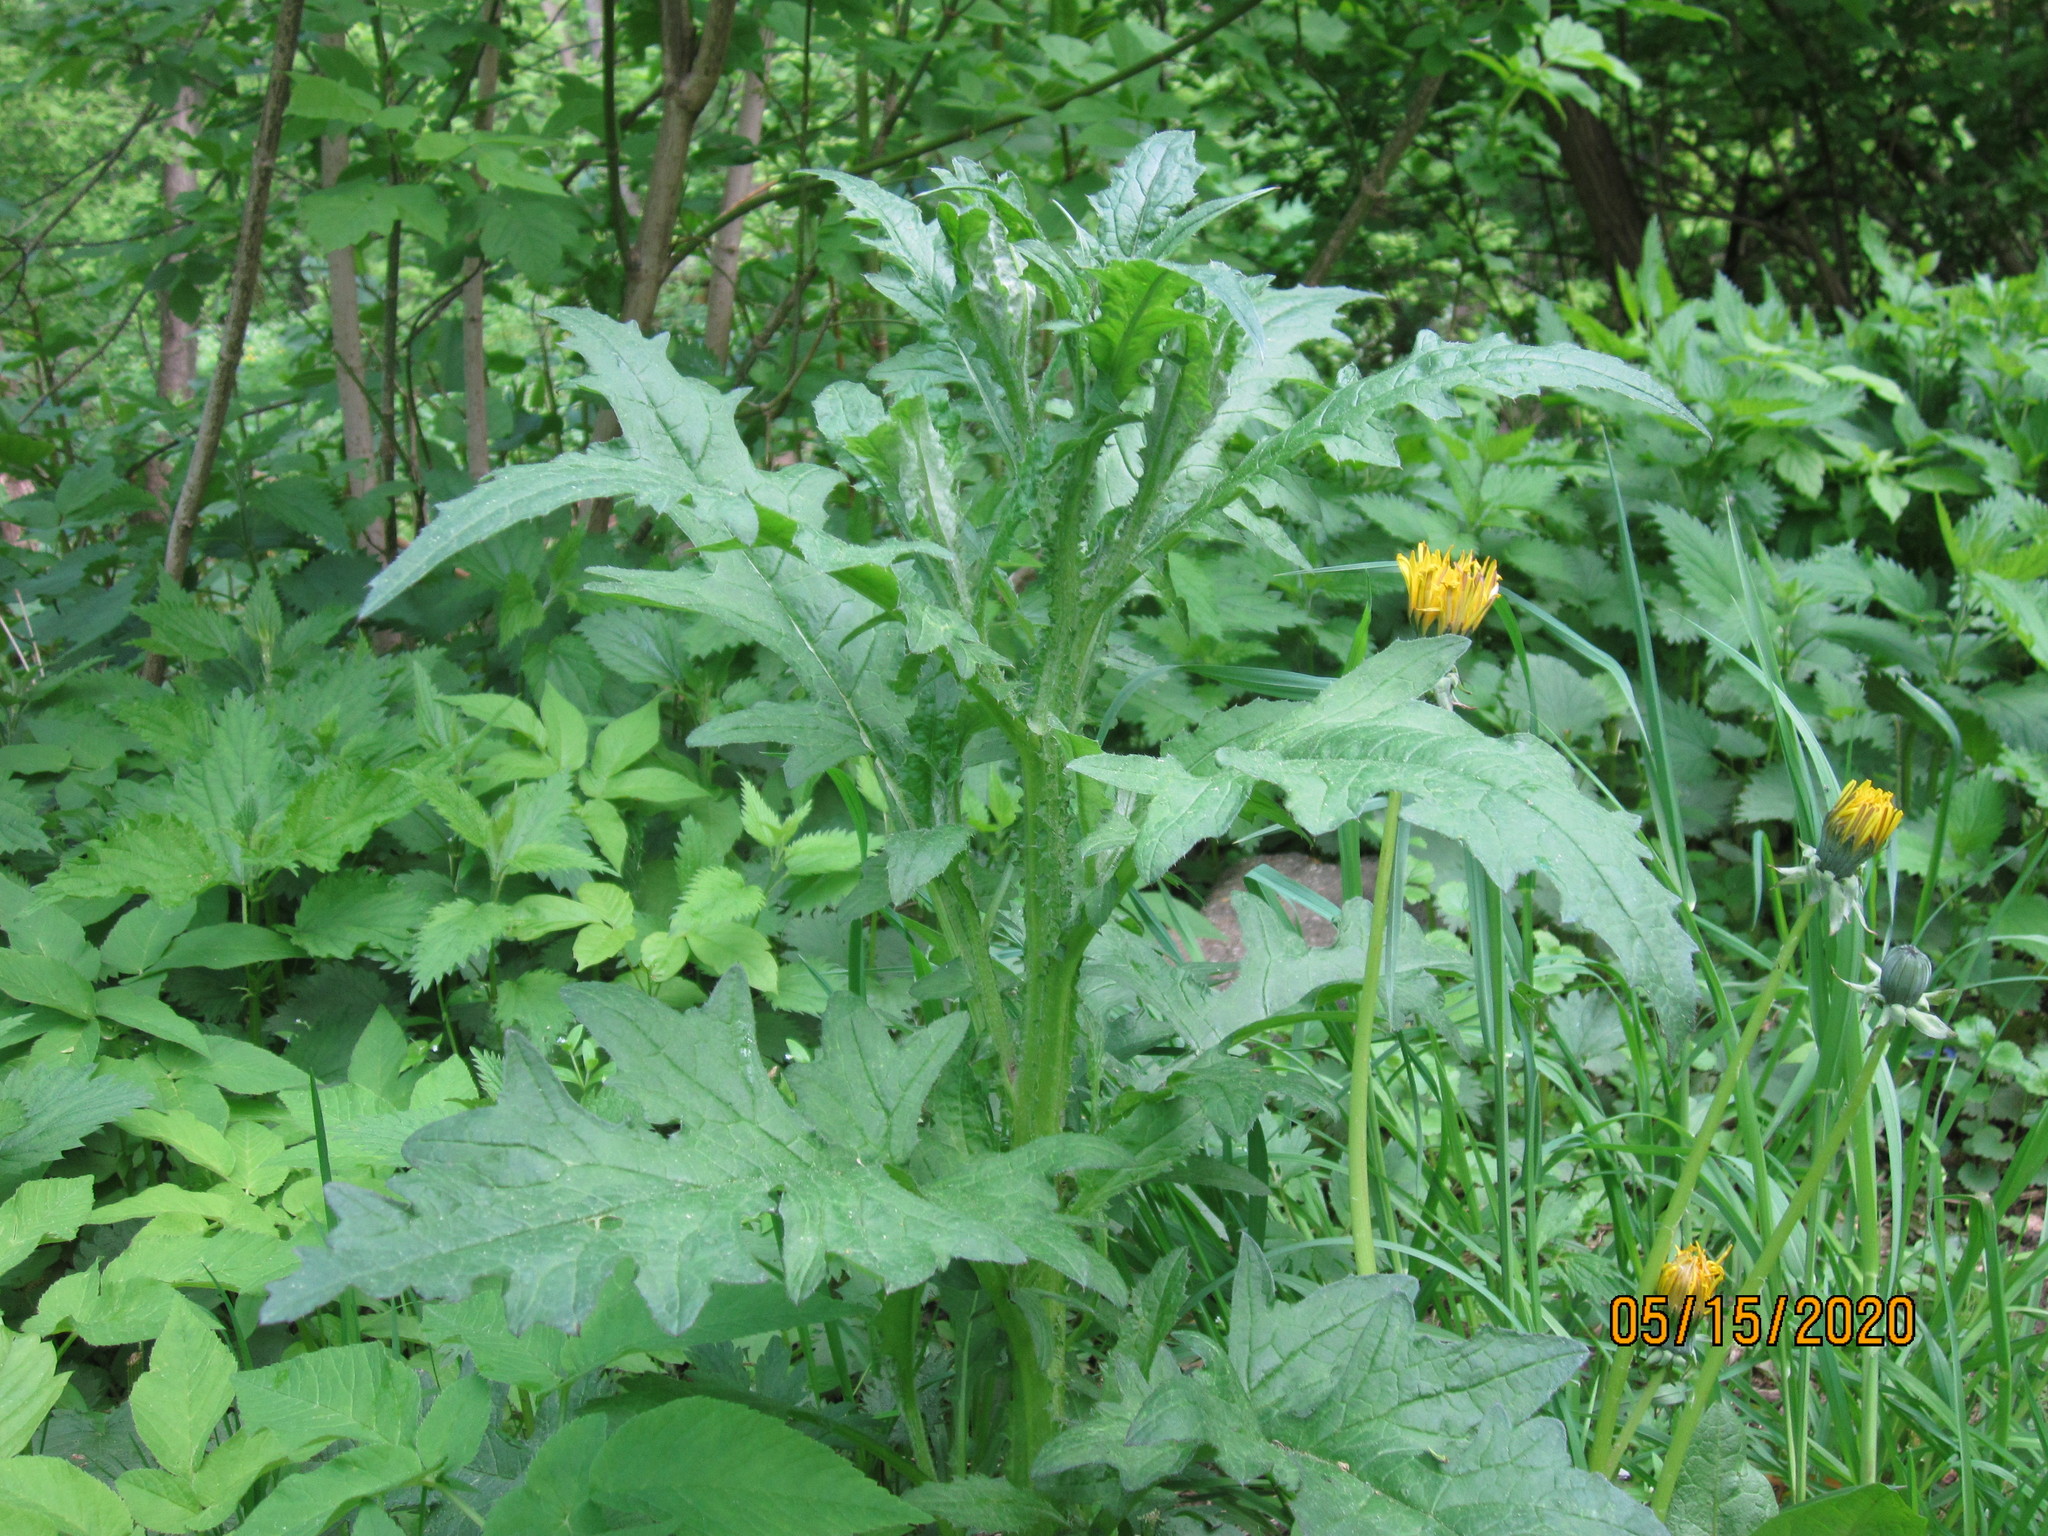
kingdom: Plantae
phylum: Tracheophyta
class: Magnoliopsida
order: Asterales
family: Asteraceae
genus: Carduus
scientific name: Carduus crispus
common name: Welted thistle
